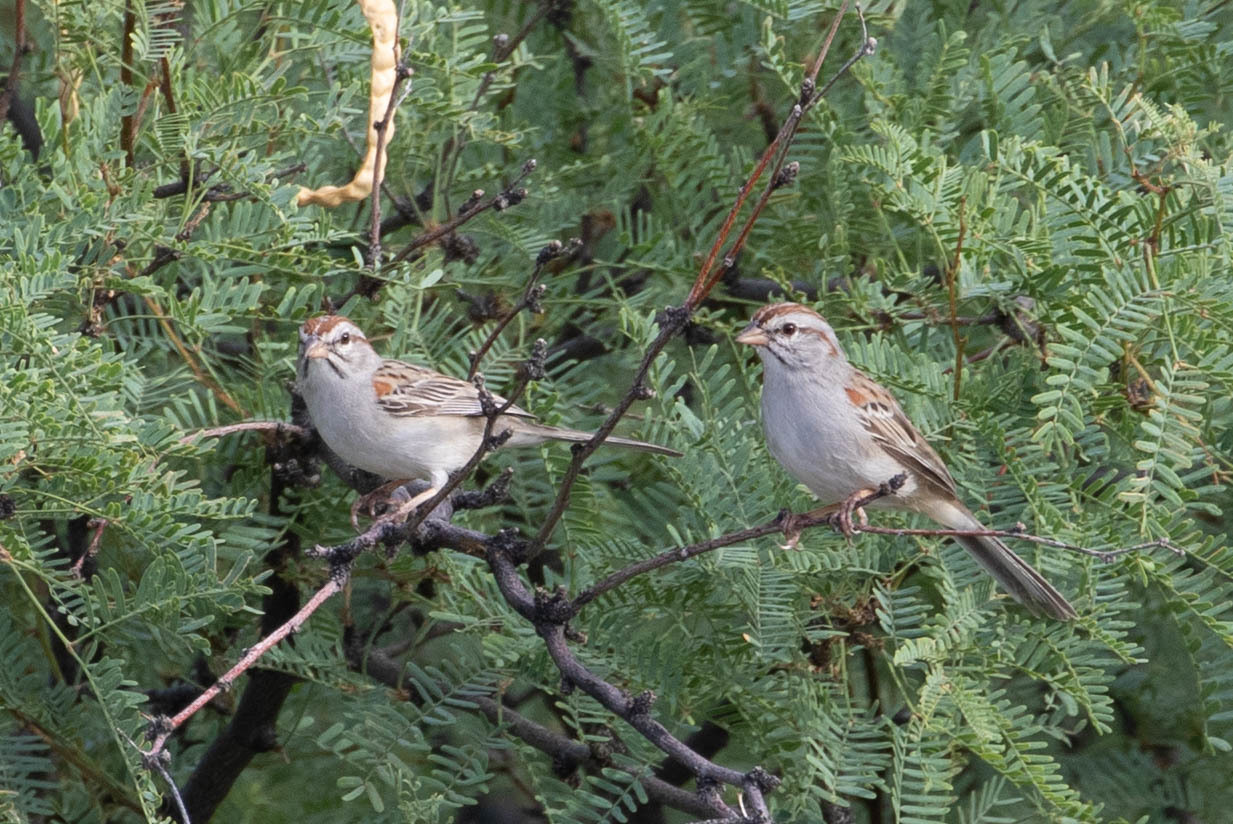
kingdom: Animalia
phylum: Chordata
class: Aves
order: Passeriformes
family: Passerellidae
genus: Peucaea
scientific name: Peucaea carpalis
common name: Rufous-winged sparrow
